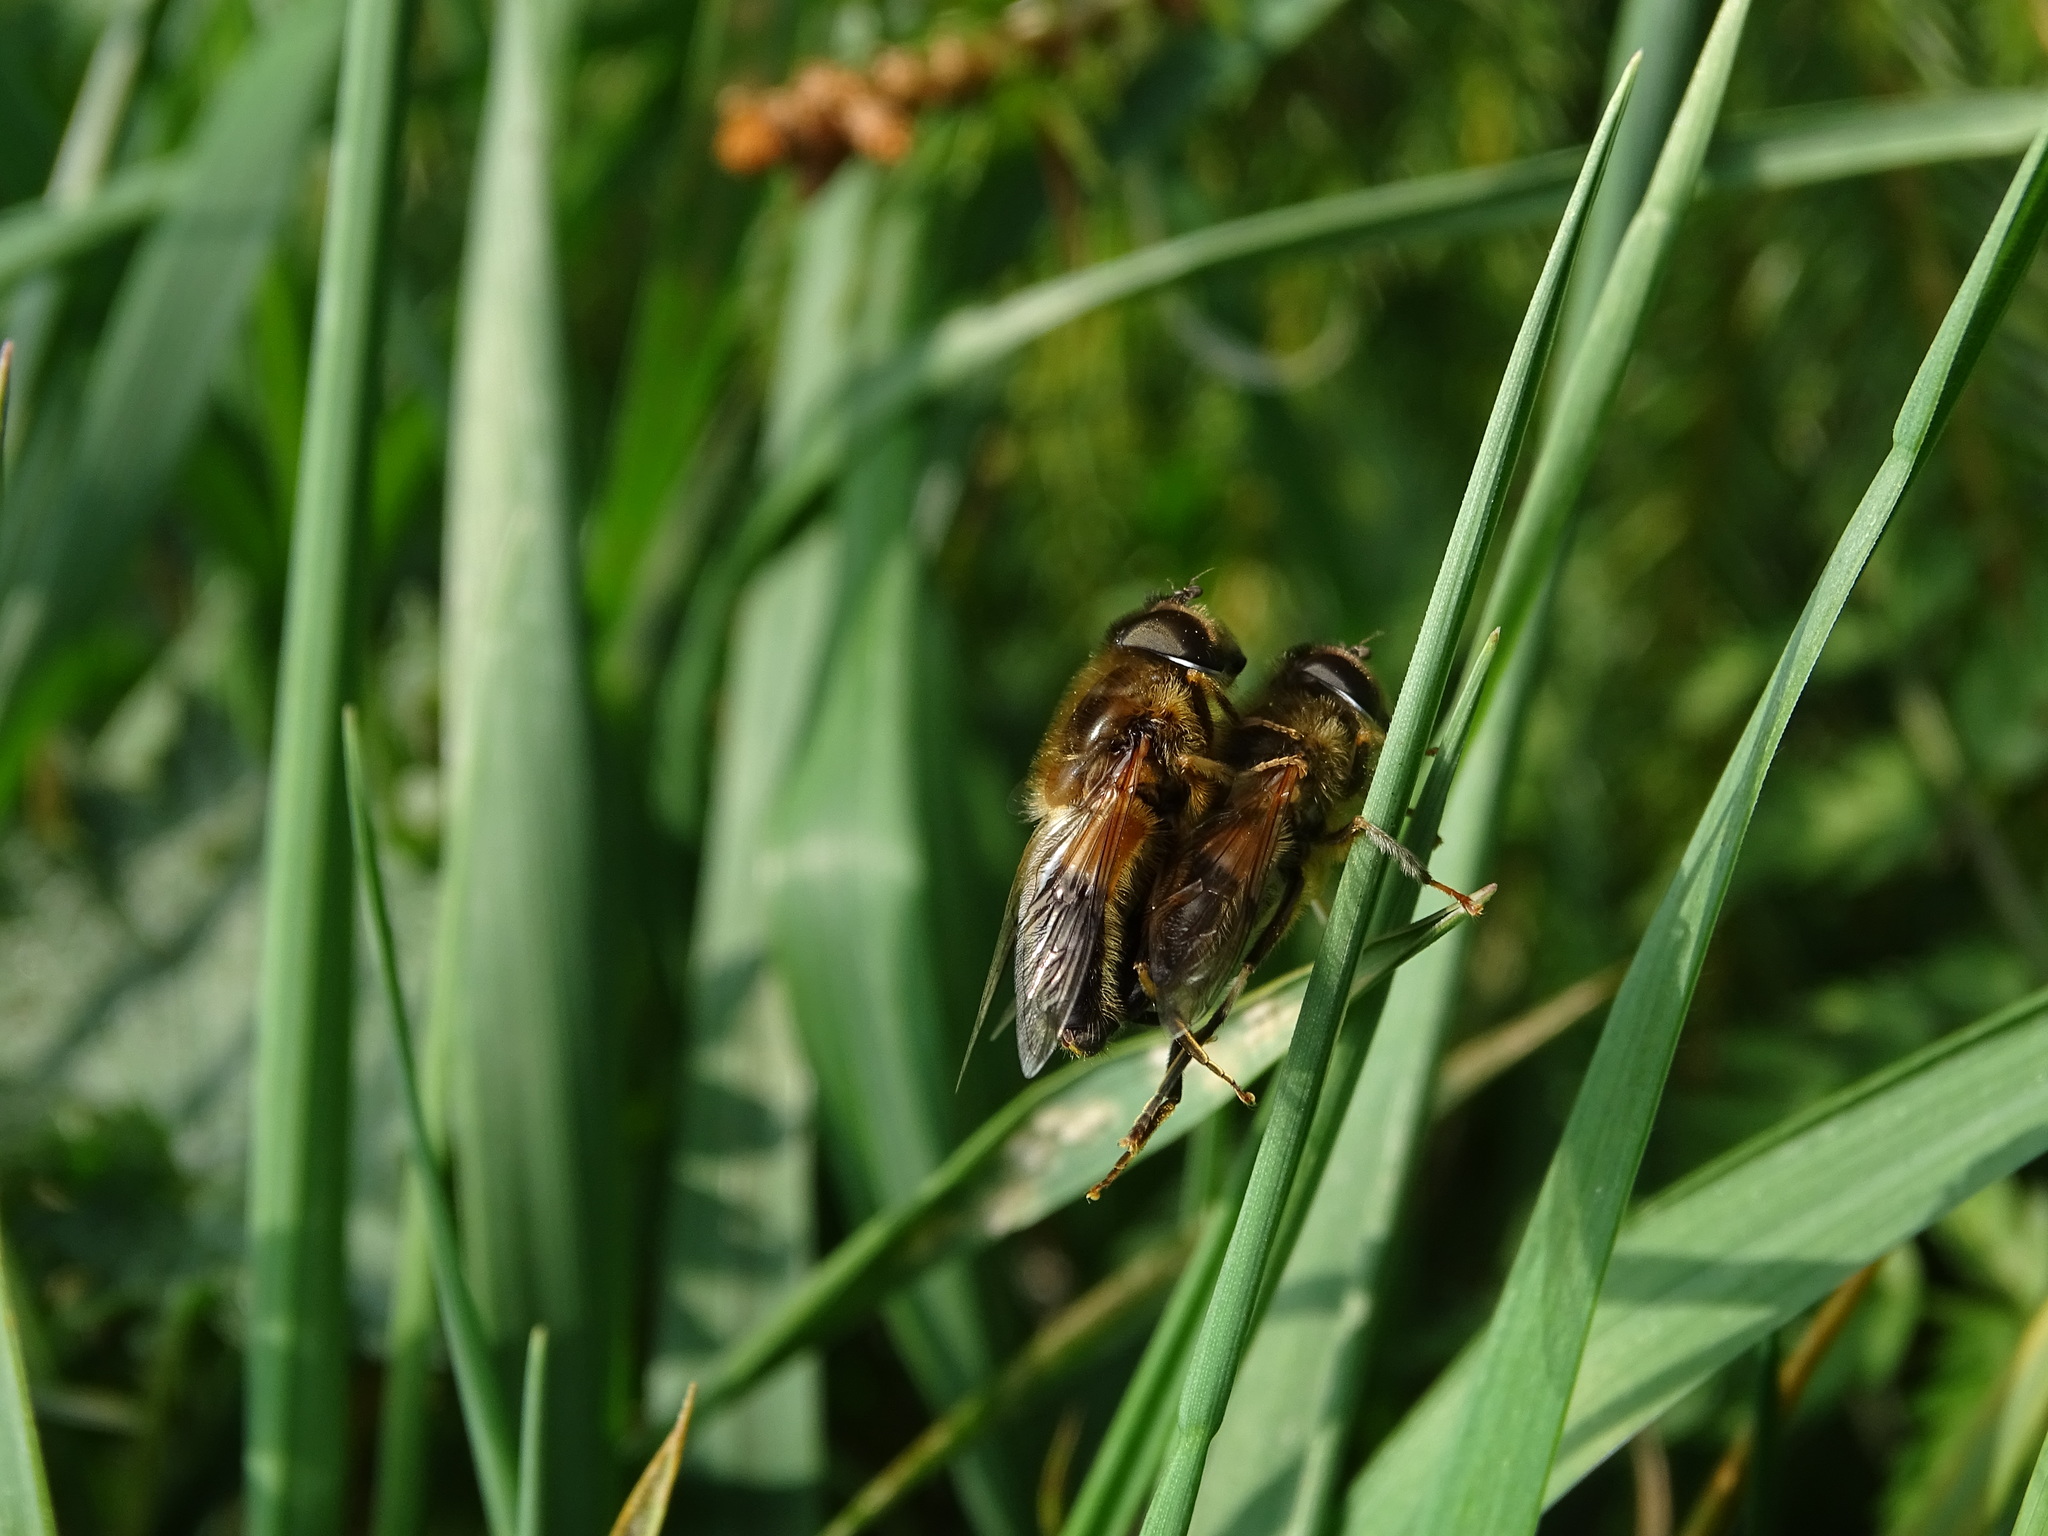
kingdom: Animalia
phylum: Arthropoda
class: Insecta
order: Diptera
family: Syrphidae
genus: Eristalis
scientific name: Eristalis pertinax
